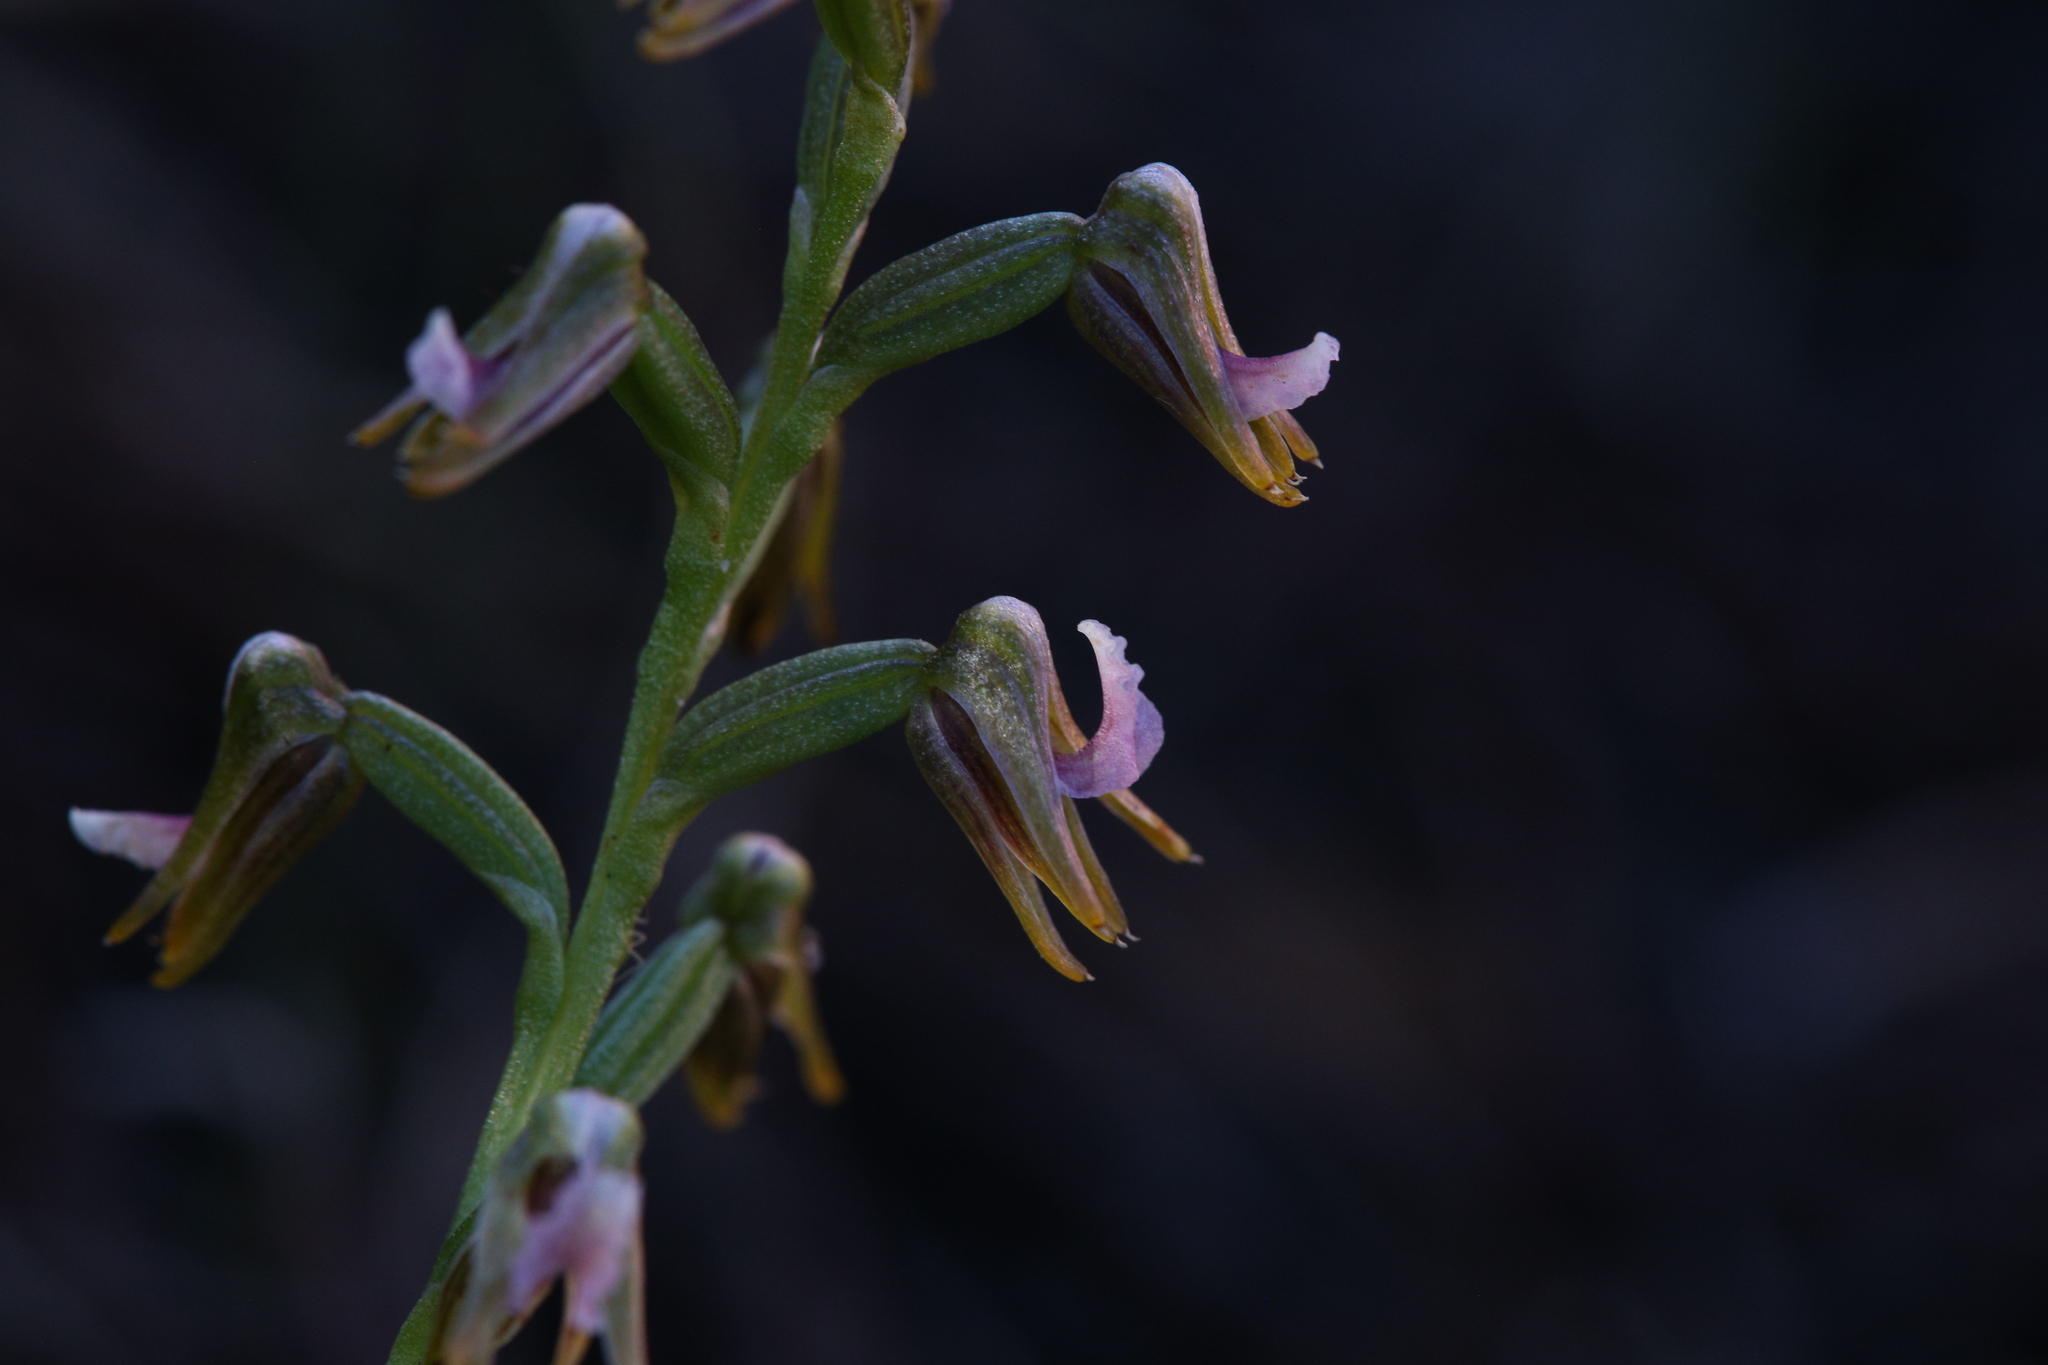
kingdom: Plantae
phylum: Tracheophyta
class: Liliopsida
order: Asparagales
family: Orchidaceae
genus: Prasophyllum
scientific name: Prasophyllum parvifolium
